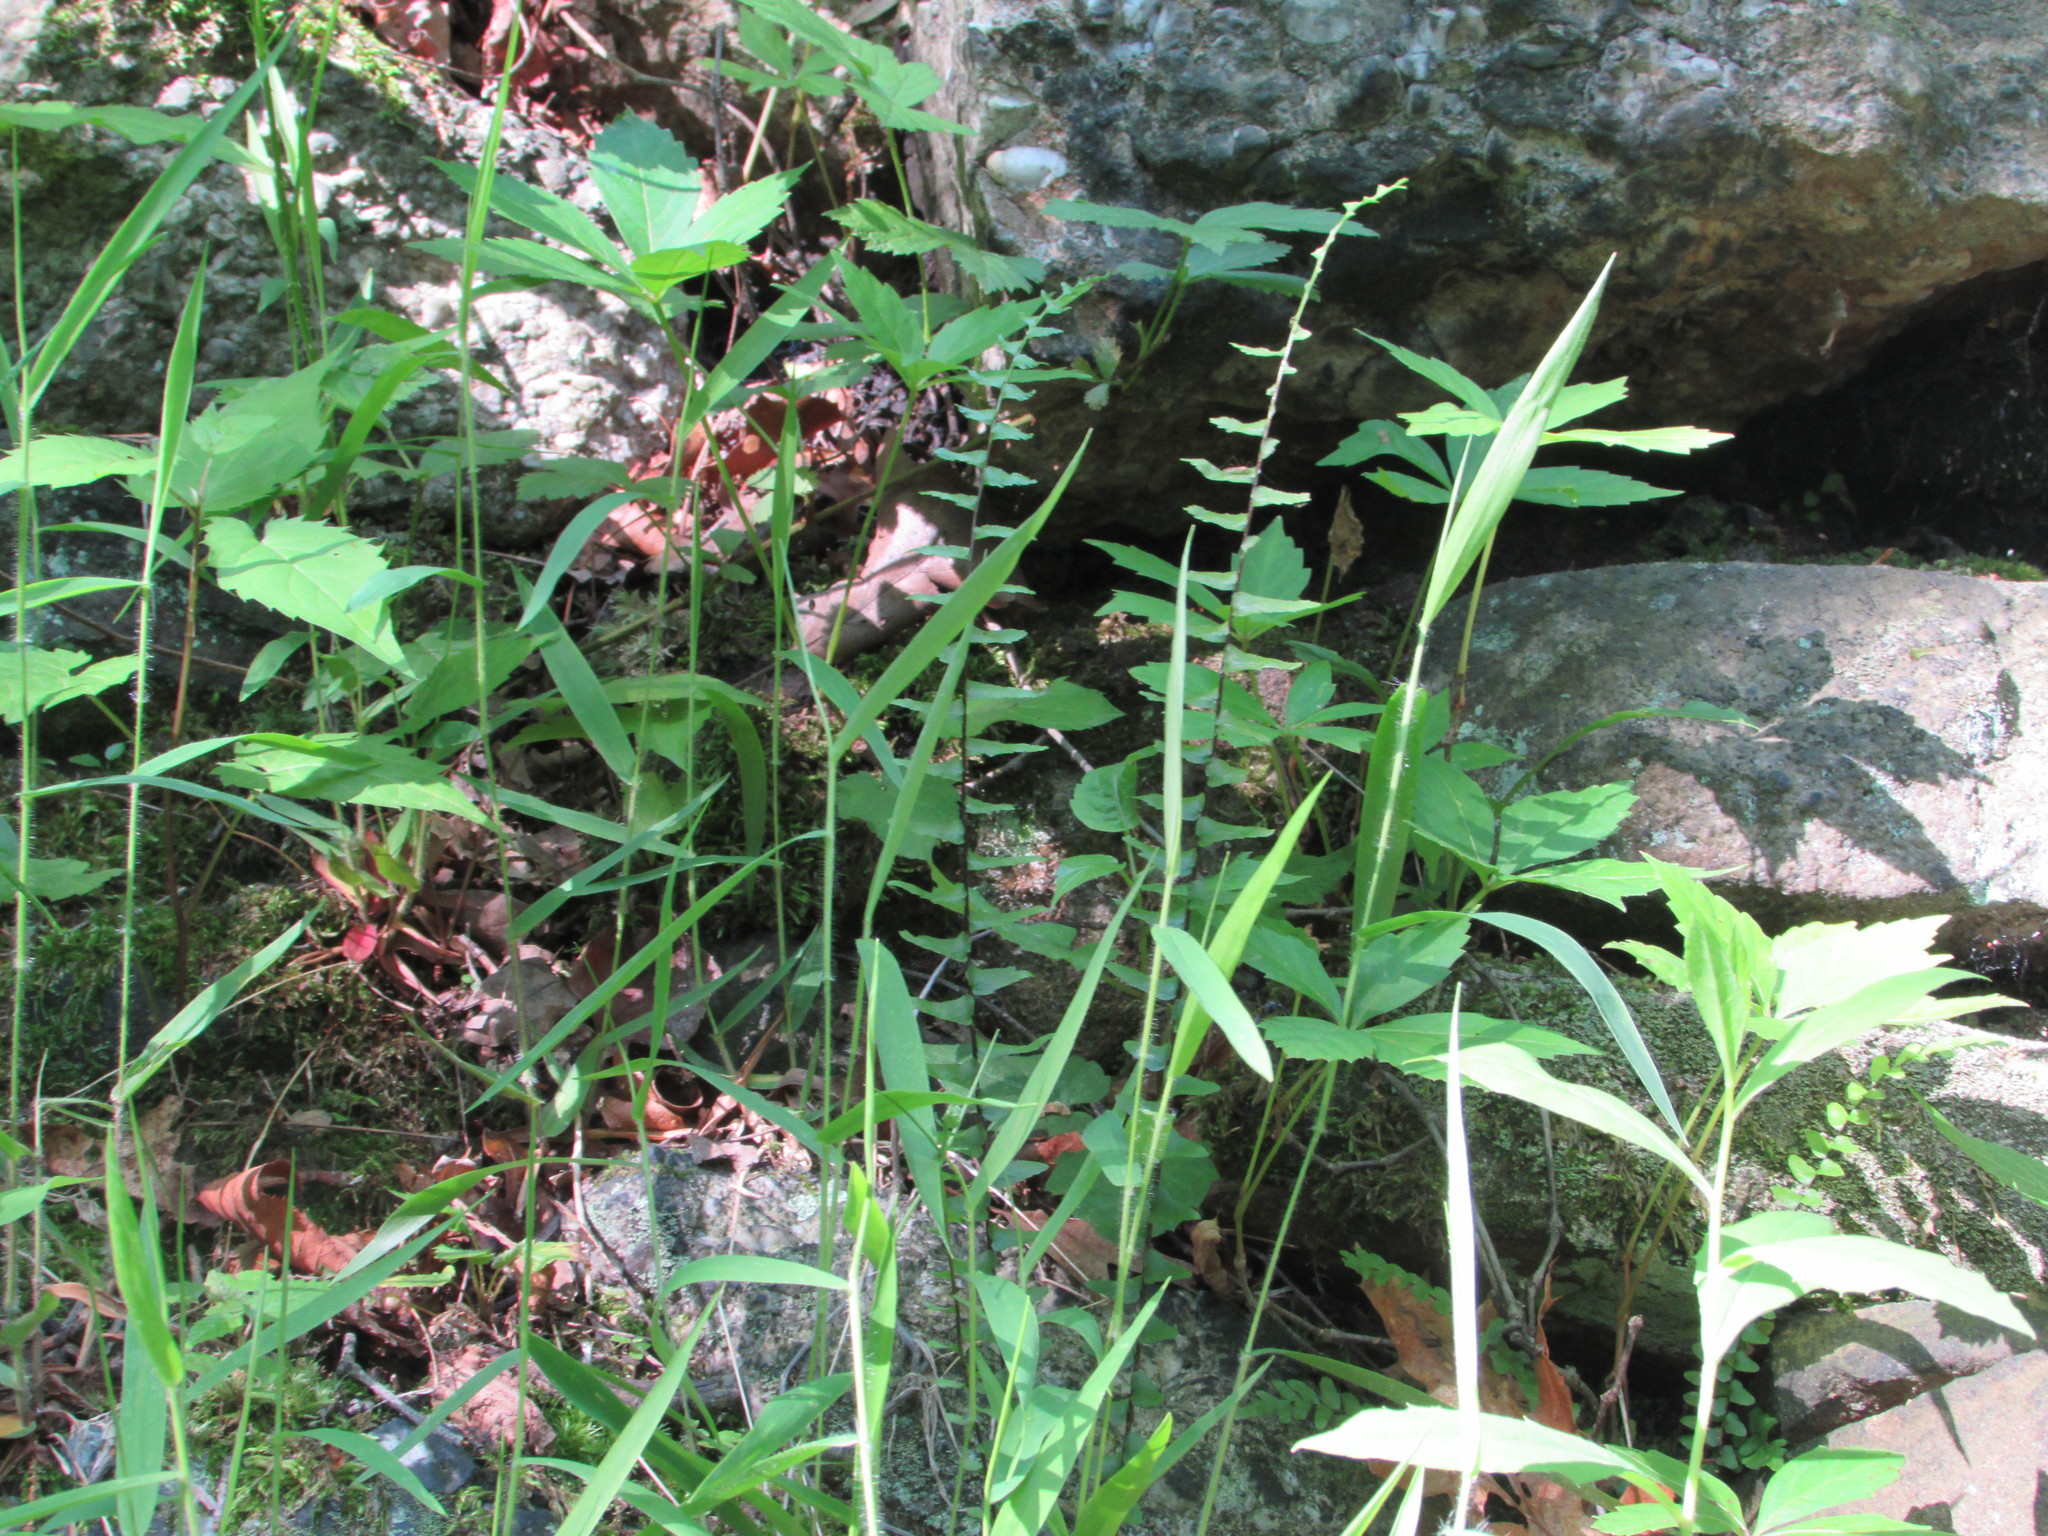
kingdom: Plantae
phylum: Tracheophyta
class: Polypodiopsida
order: Polypodiales
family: Aspleniaceae
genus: Asplenium
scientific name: Asplenium platyneuron
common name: Ebony spleenwort
